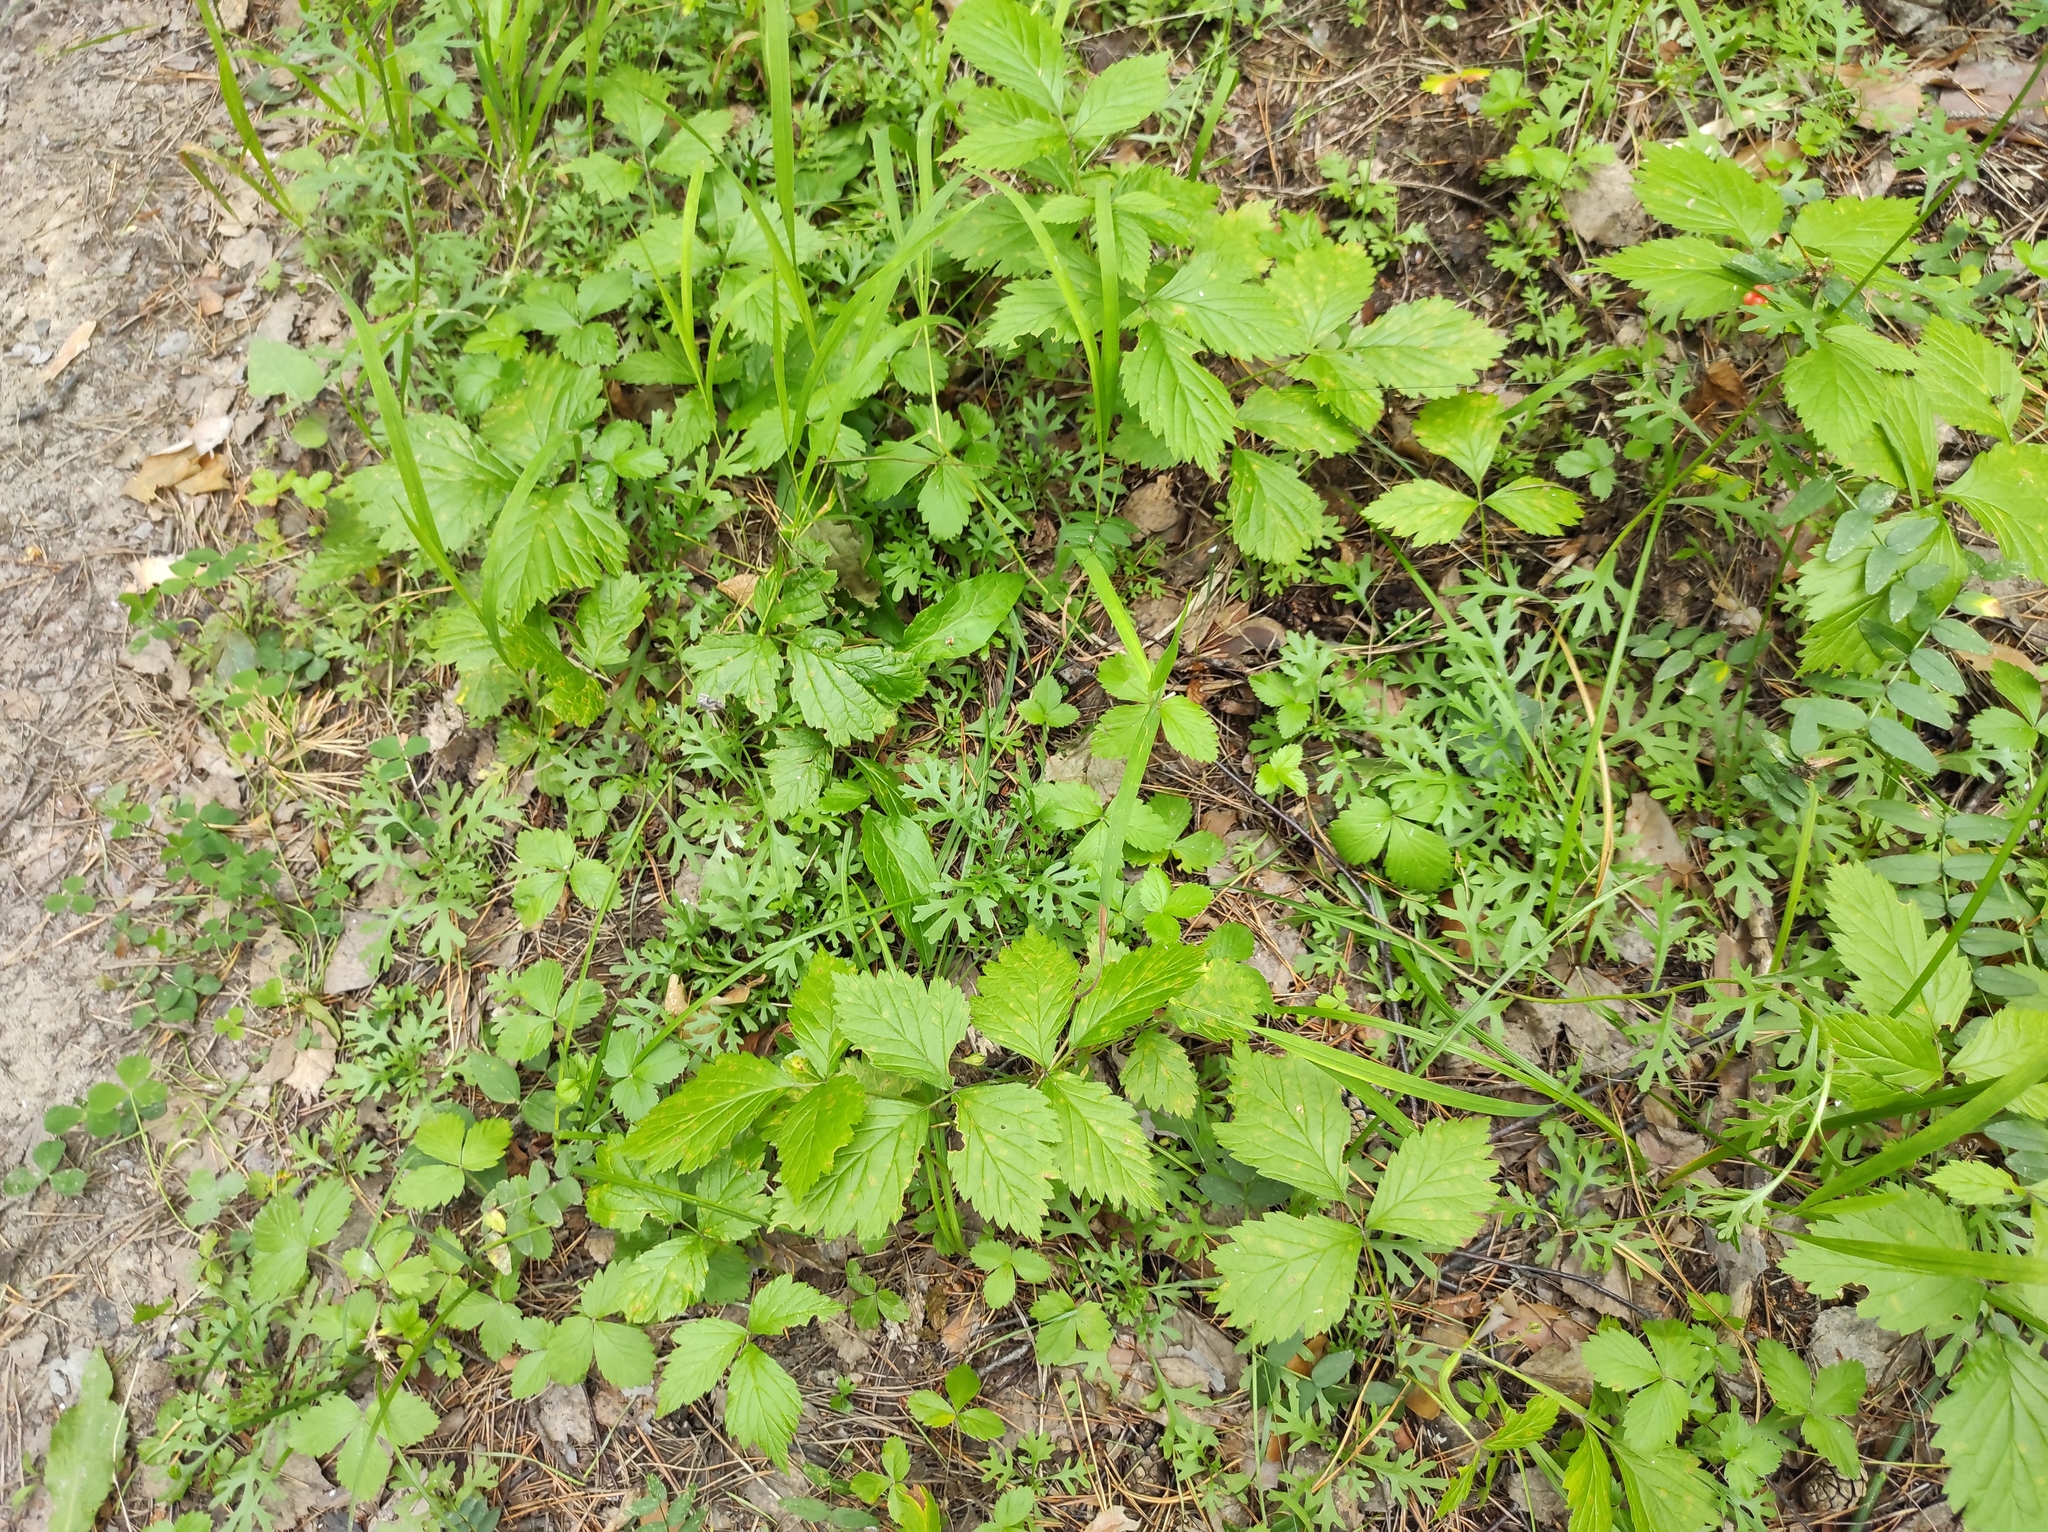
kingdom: Plantae
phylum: Tracheophyta
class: Magnoliopsida
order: Asterales
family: Asteraceae
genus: Chrysanthemum
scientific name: Chrysanthemum zawadzkii
